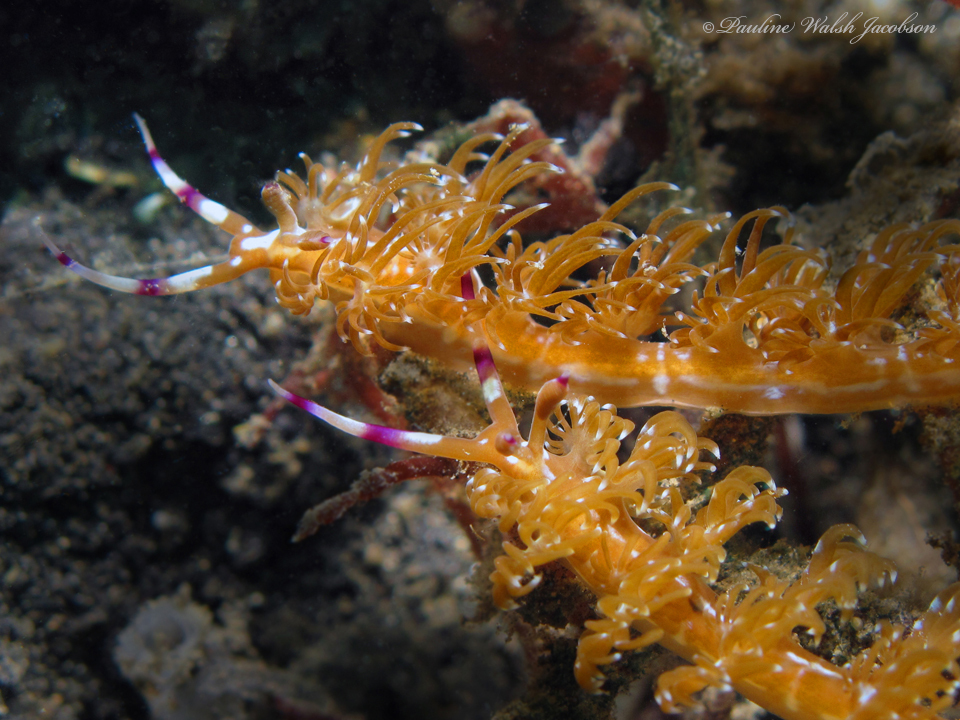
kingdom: Animalia
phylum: Mollusca
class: Gastropoda
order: Nudibranchia
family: Facelinidae
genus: Pteraeolidia
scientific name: Pteraeolidia semperi
